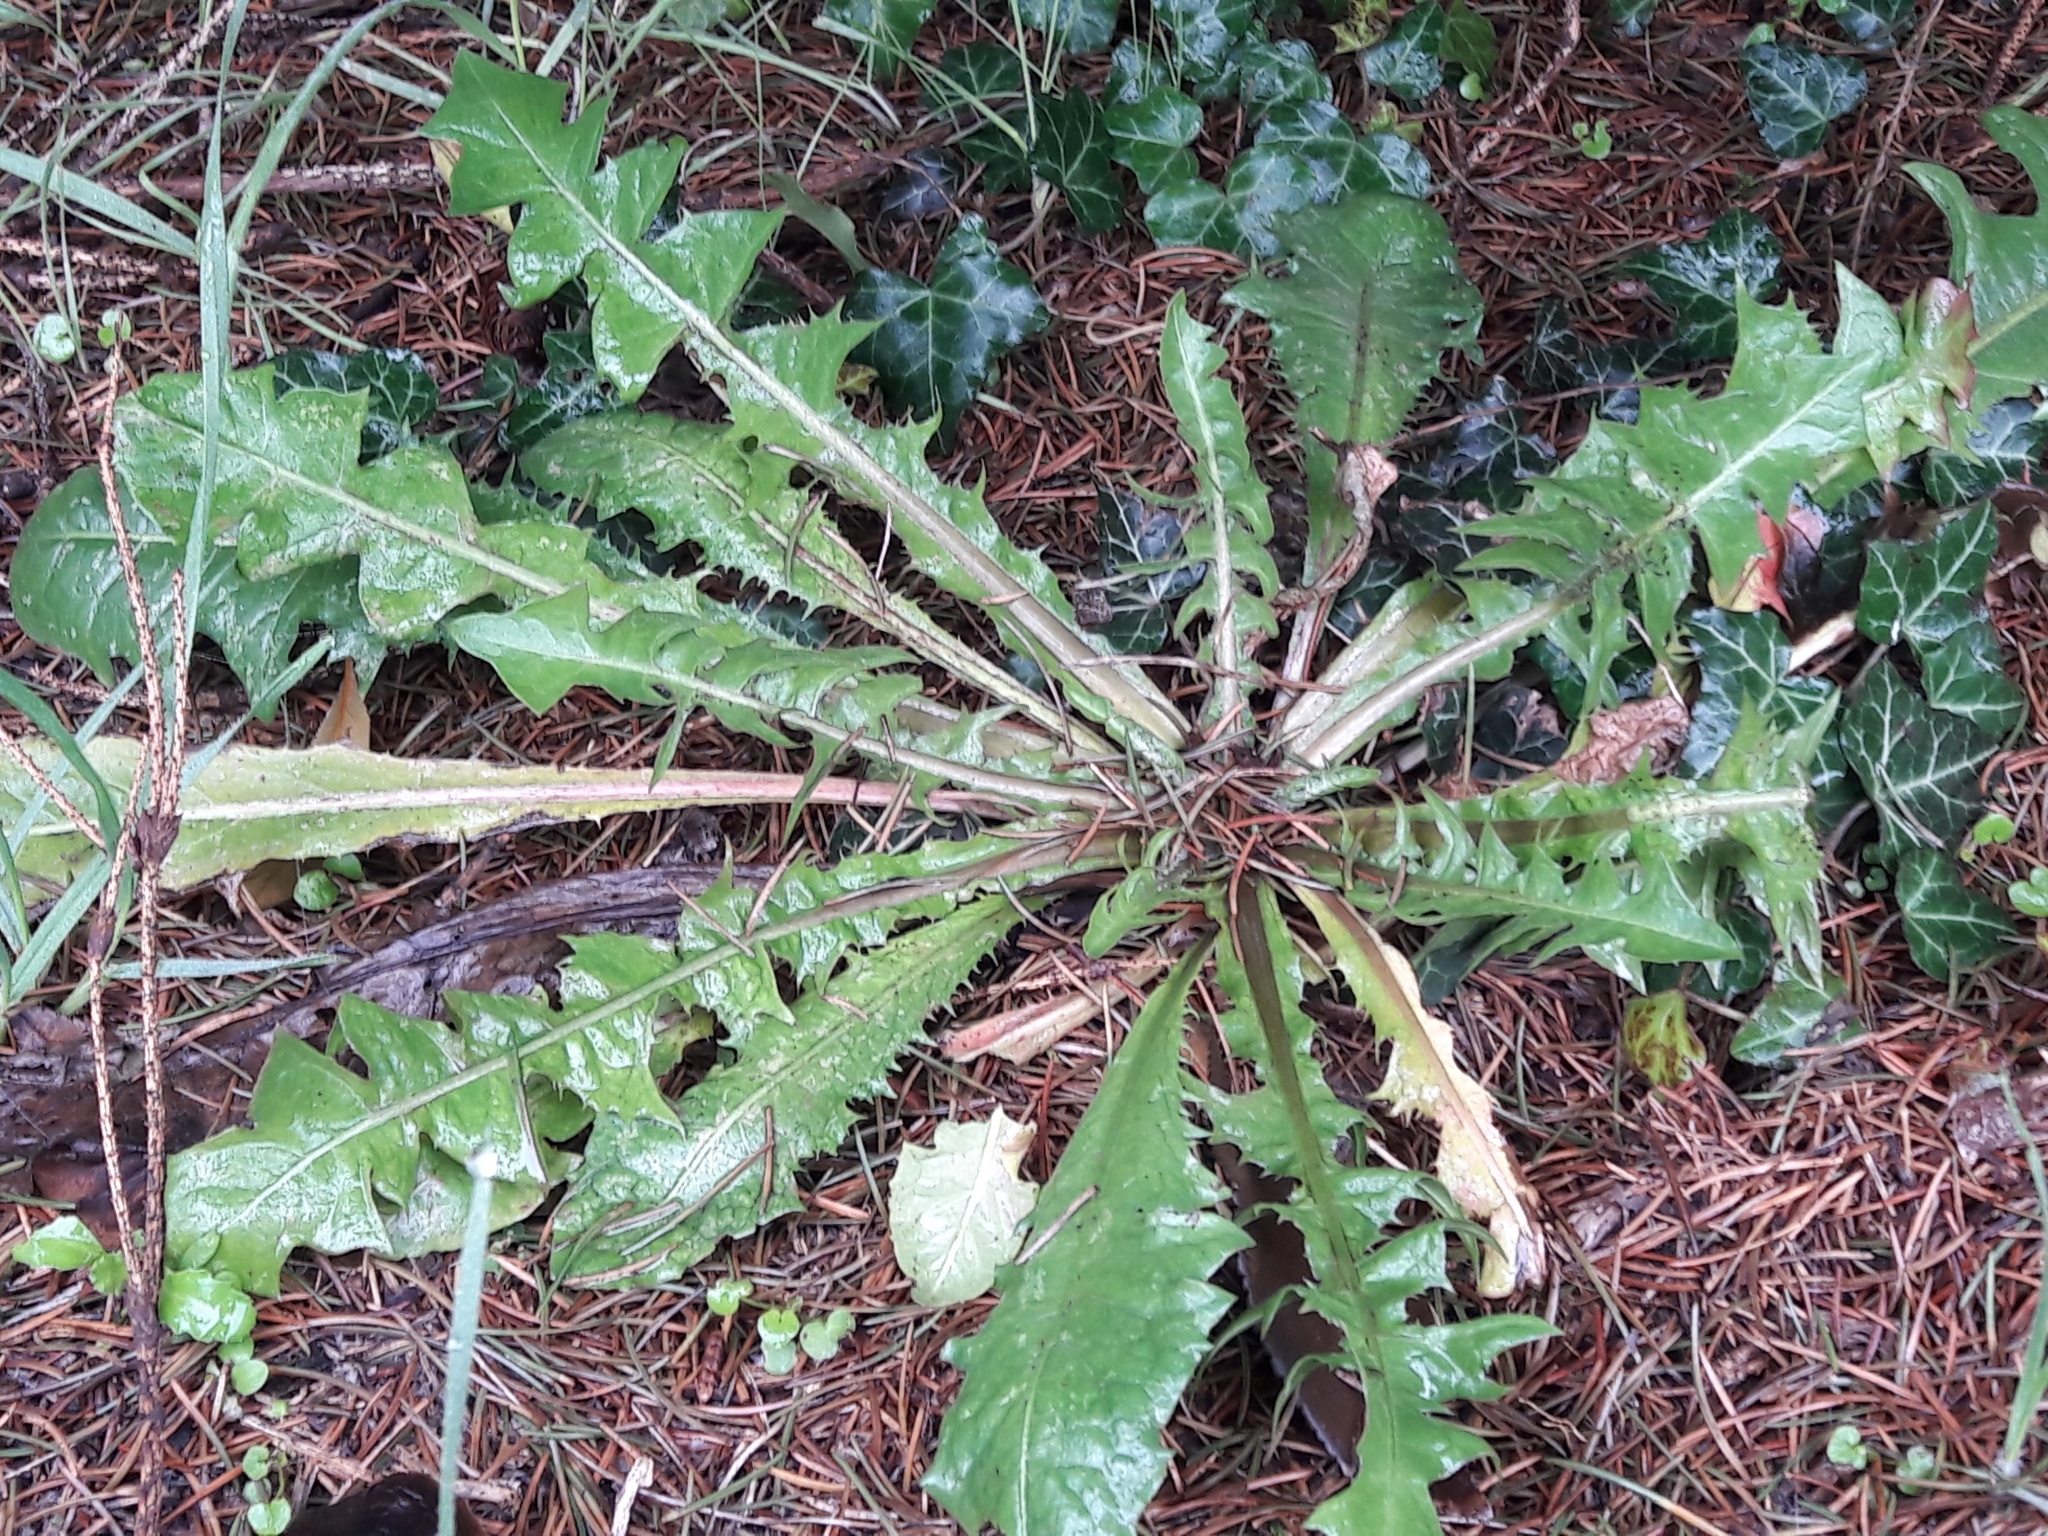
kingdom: Plantae
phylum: Tracheophyta
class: Magnoliopsida
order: Asterales
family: Asteraceae
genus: Taraxacum
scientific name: Taraxacum officinale
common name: Common dandelion
